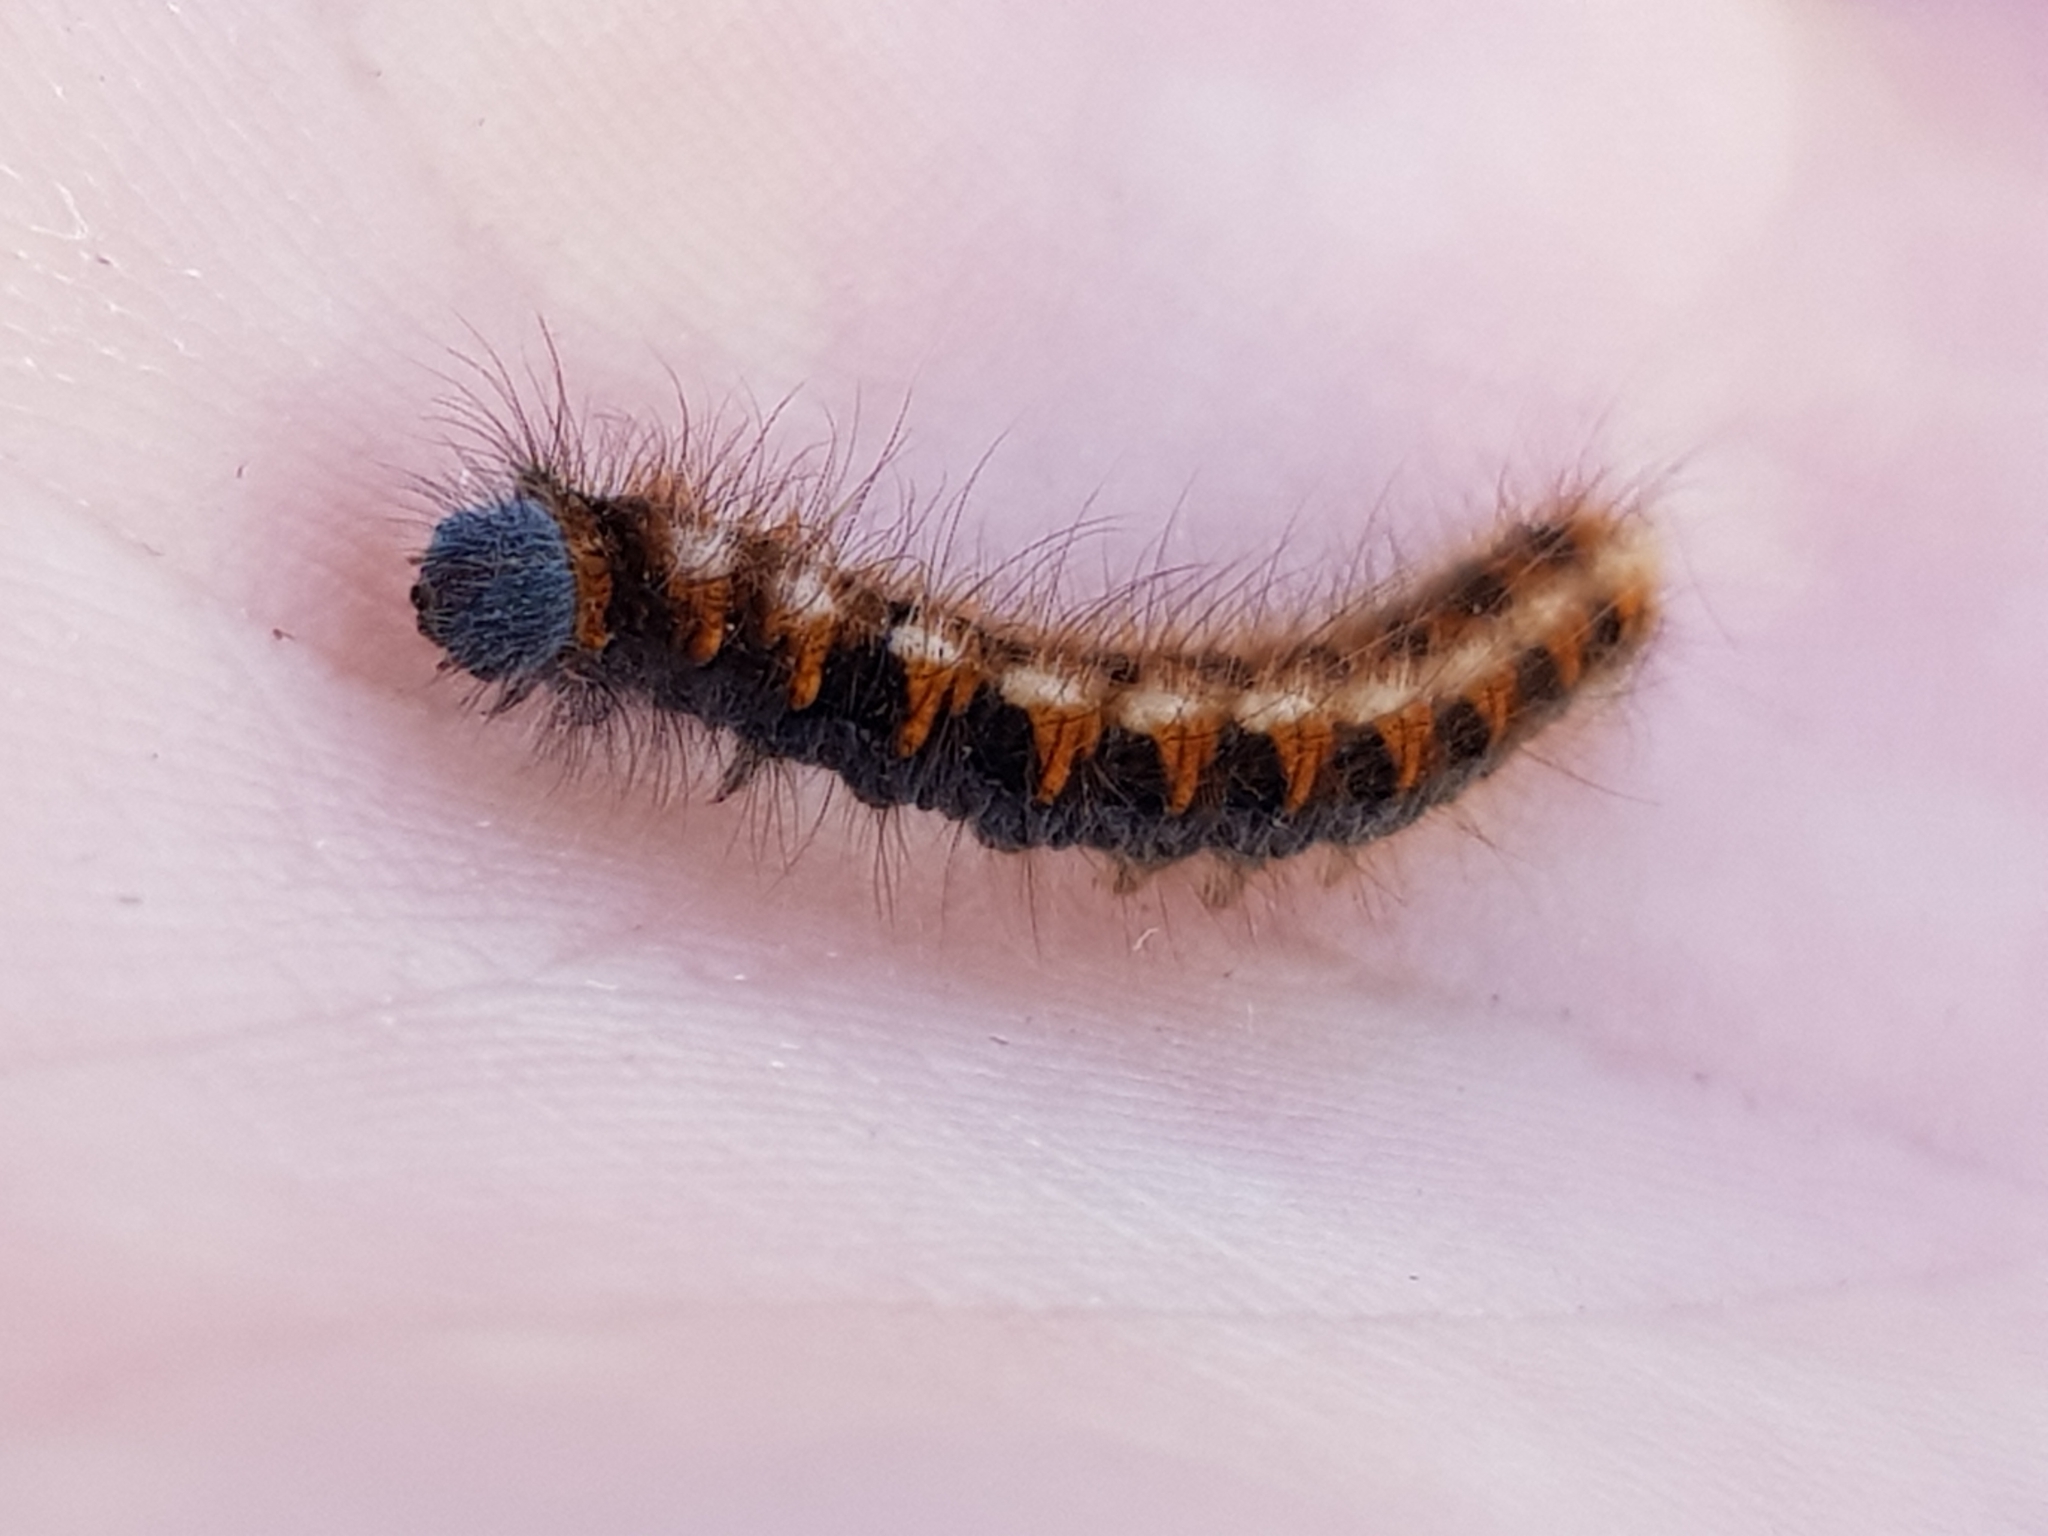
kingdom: Animalia
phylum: Arthropoda
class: Insecta
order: Lepidoptera
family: Lasiocampidae
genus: Lasiocampa
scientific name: Lasiocampa quercus
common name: Oak eggar
